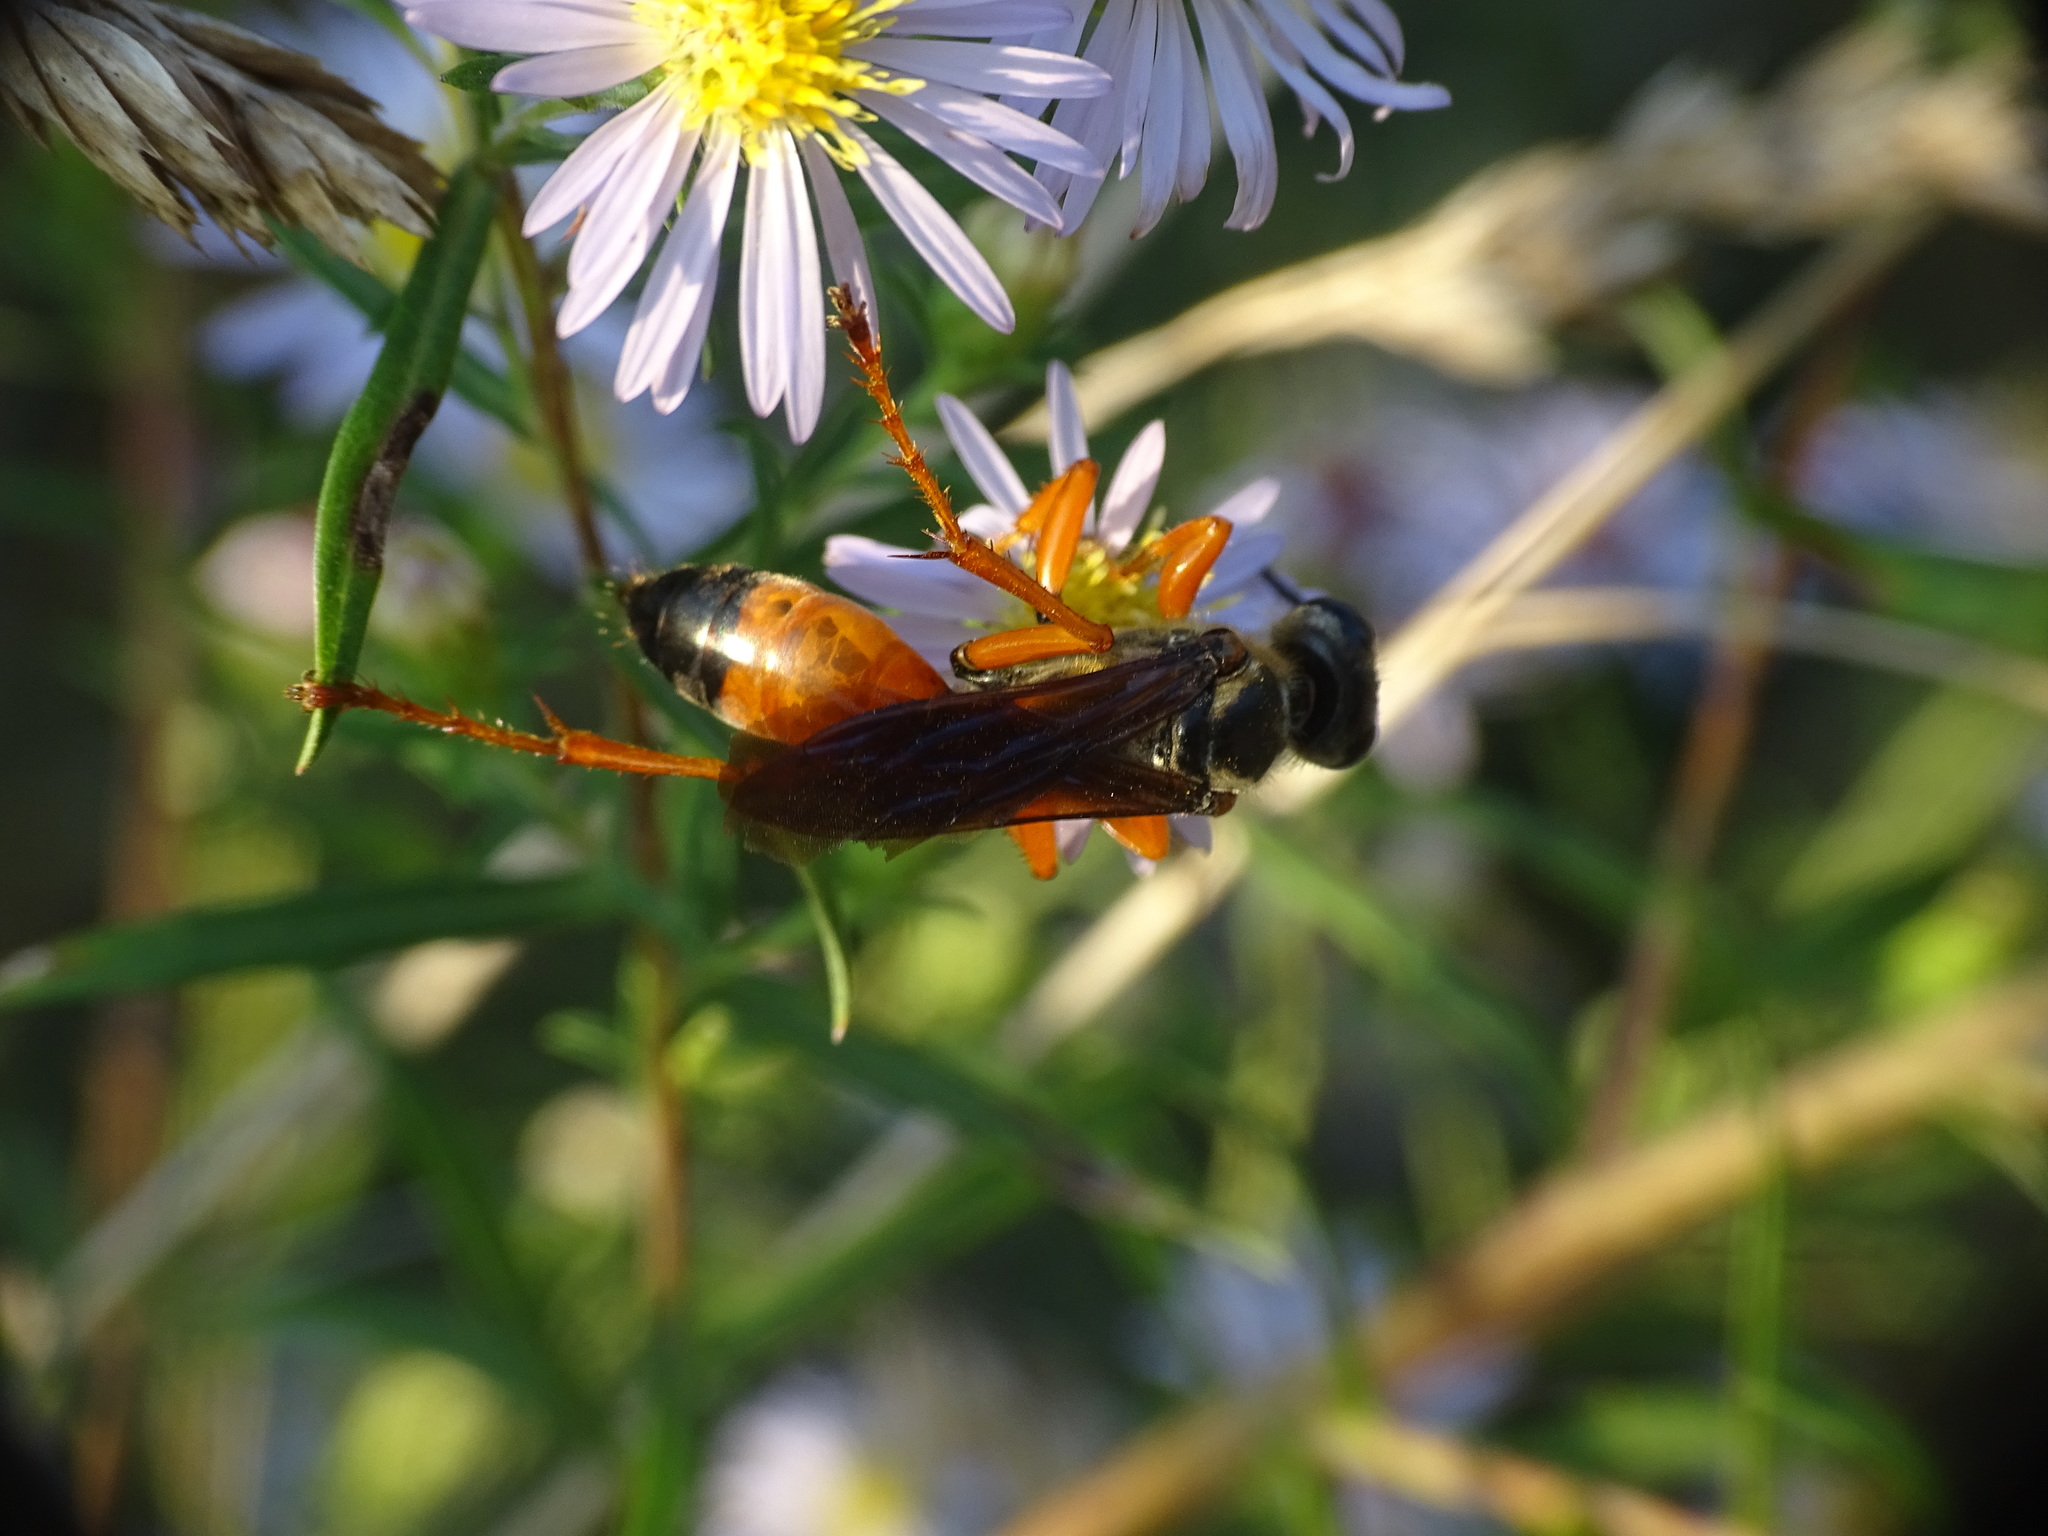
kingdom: Animalia
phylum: Arthropoda
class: Insecta
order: Hymenoptera
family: Sphecidae
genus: Sphex
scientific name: Sphex ichneumoneus
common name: Great golden digger wasp
